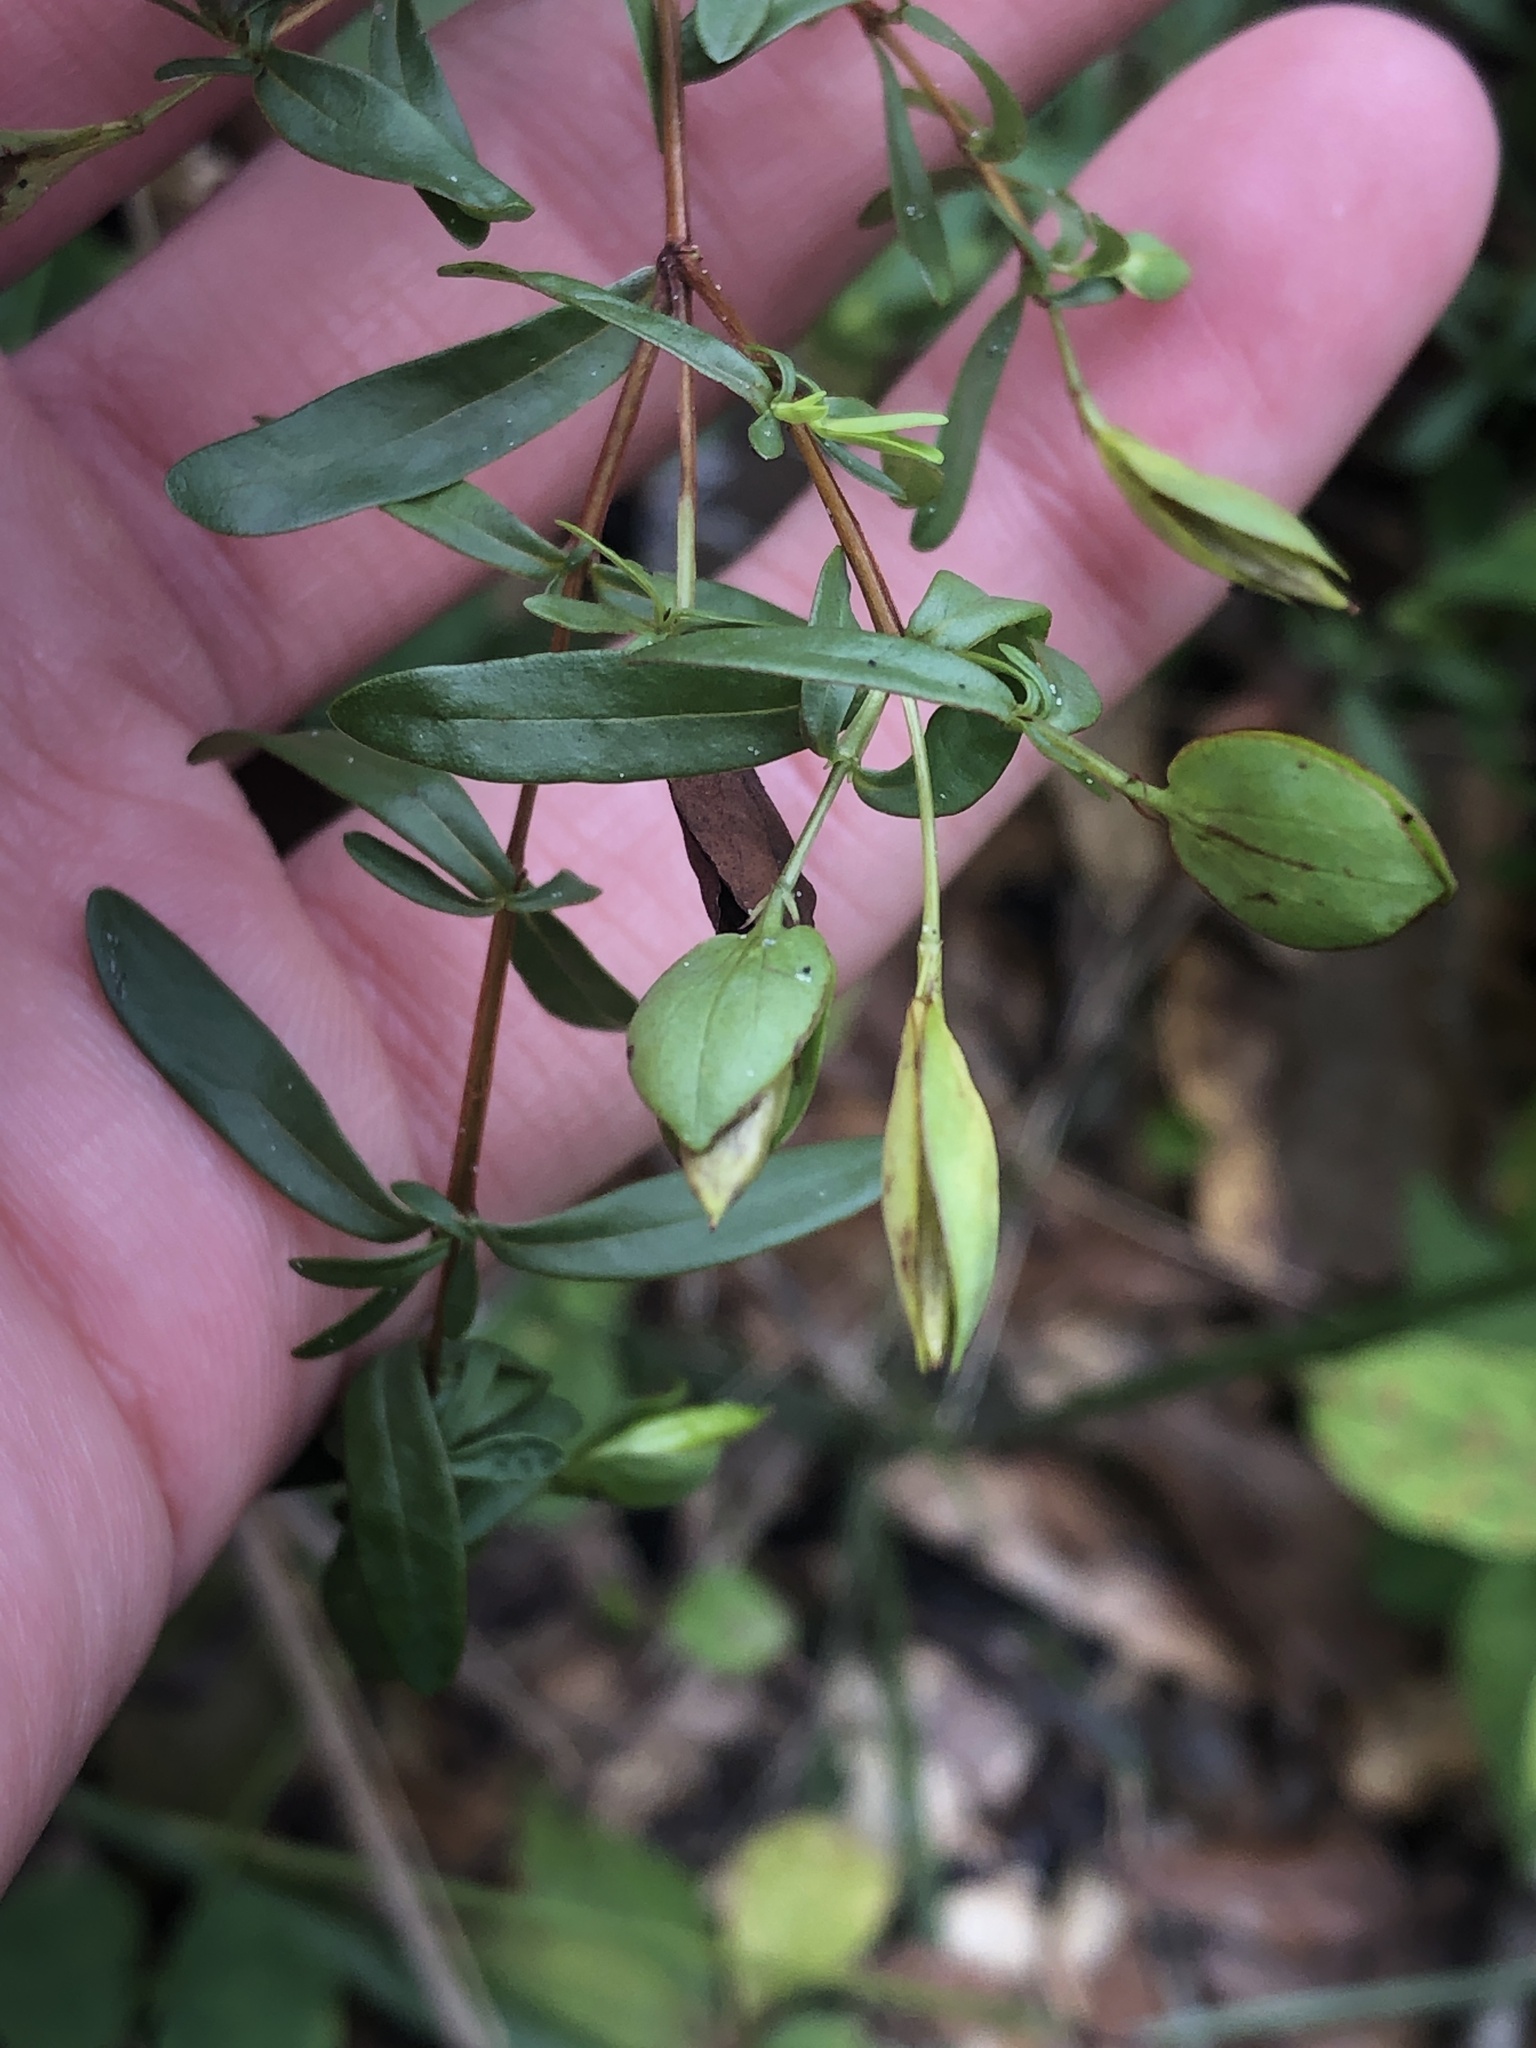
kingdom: Plantae
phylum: Tracheophyta
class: Magnoliopsida
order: Malpighiales
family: Hypericaceae
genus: Hypericum
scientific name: Hypericum hypericoides
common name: St. andrew's cross
